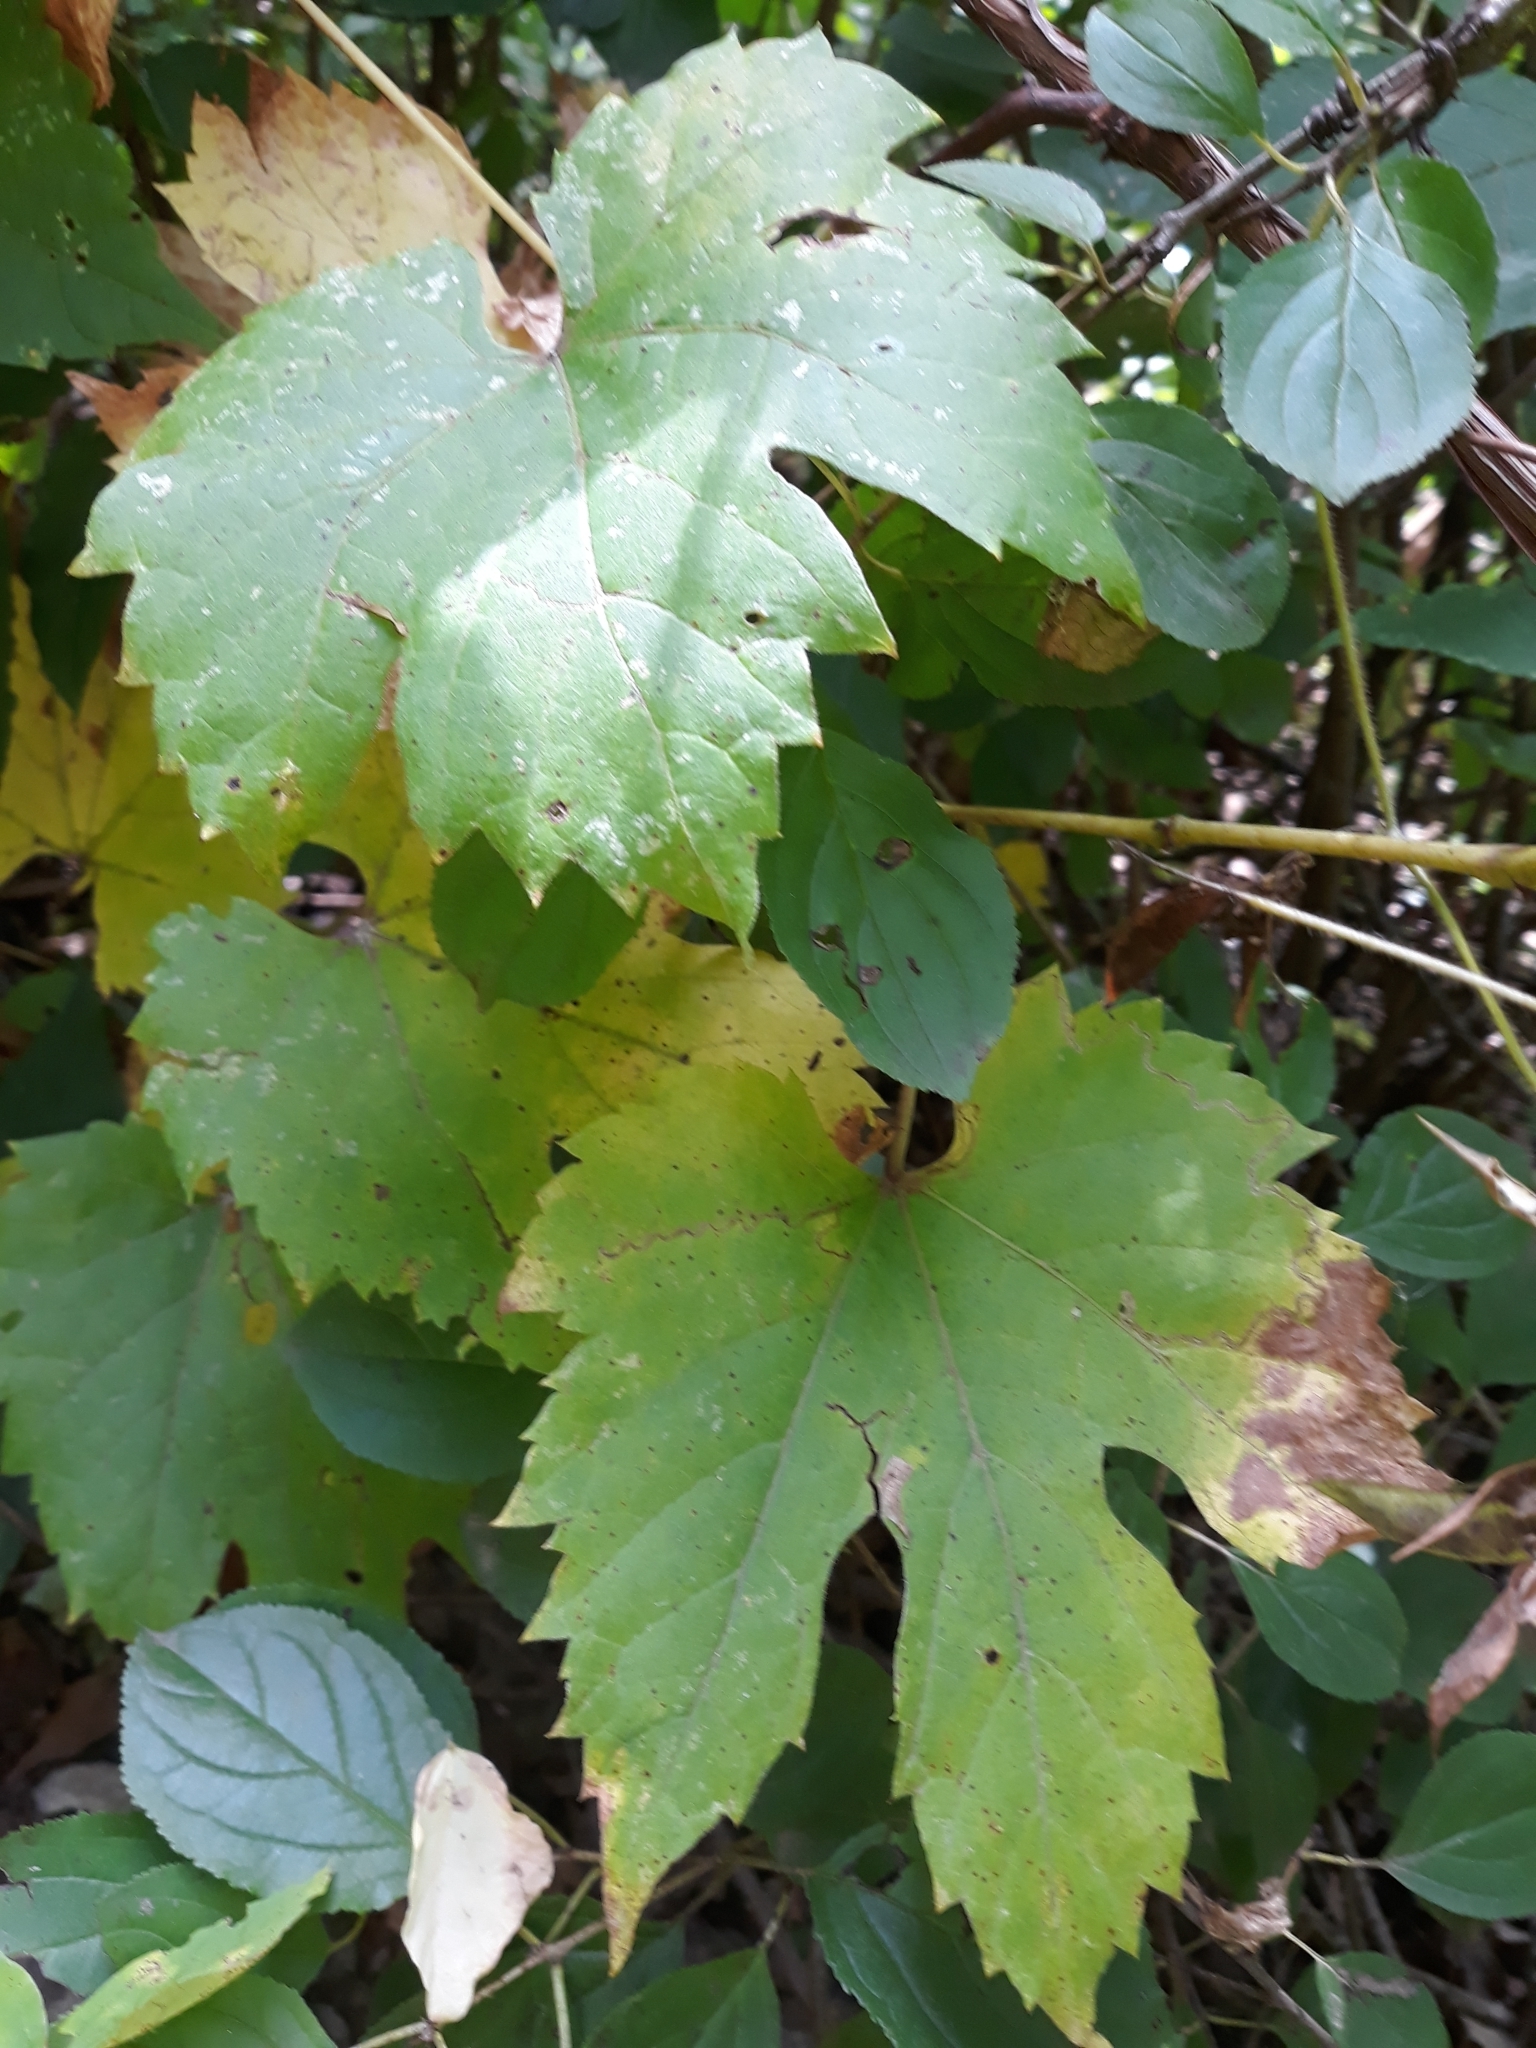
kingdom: Plantae
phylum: Tracheophyta
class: Magnoliopsida
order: Vitales
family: Vitaceae
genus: Vitis
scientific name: Vitis riparia
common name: Frost grape
